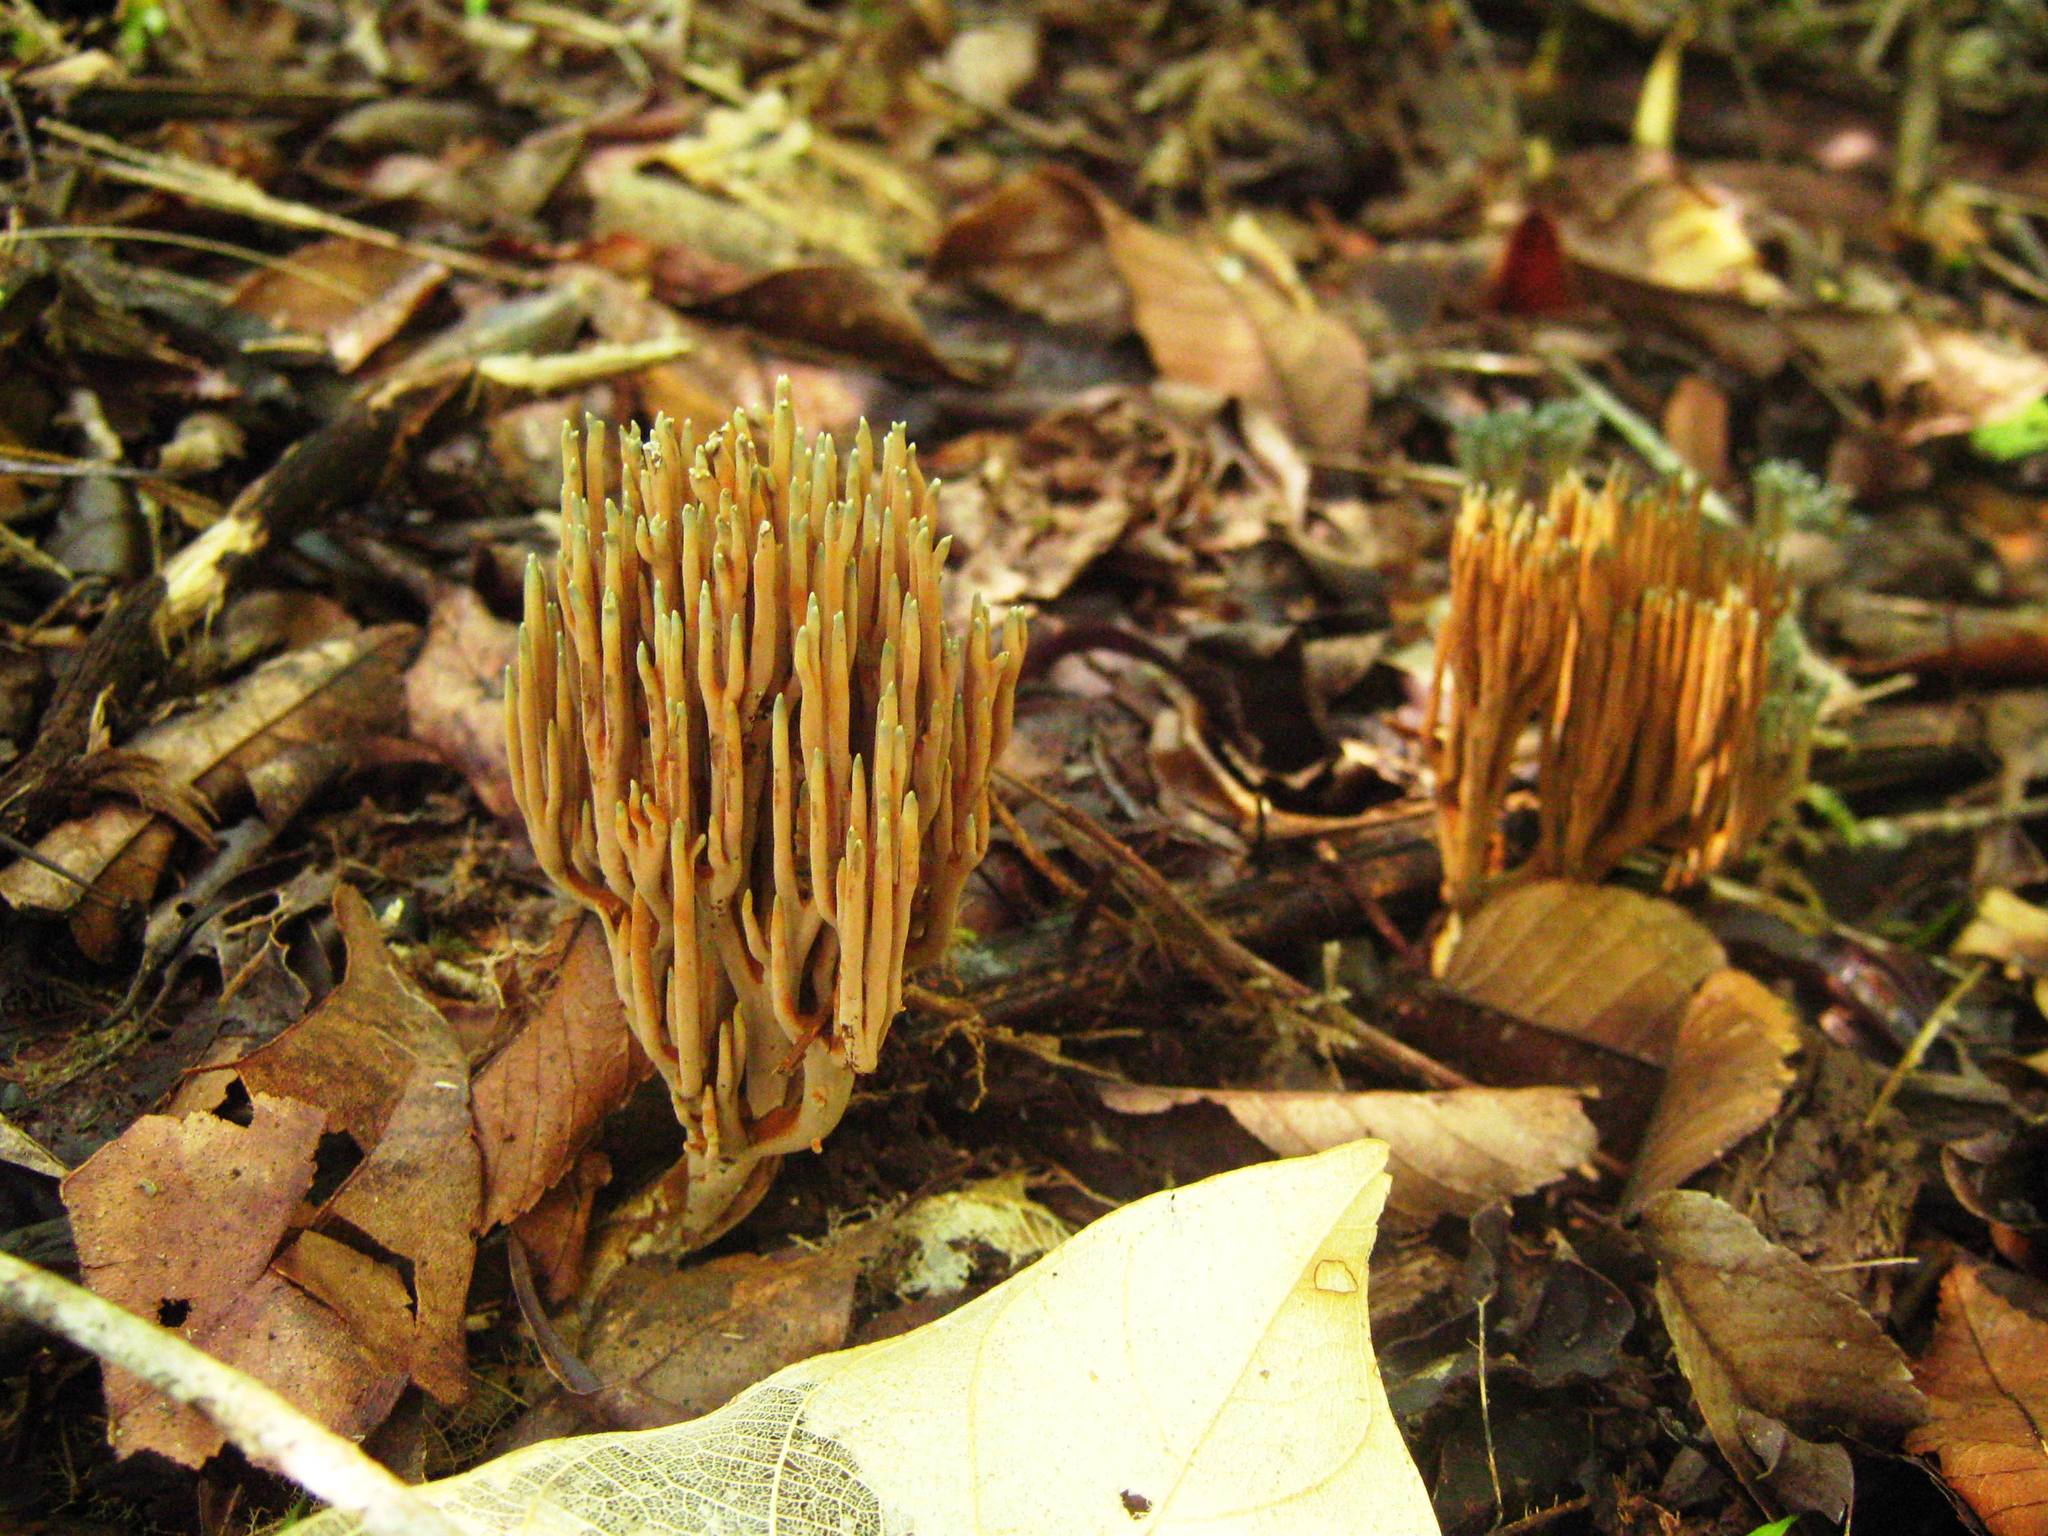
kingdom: Fungi
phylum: Basidiomycota
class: Agaricomycetes
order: Gomphales
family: Gomphaceae
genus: Ramaria
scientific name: Ramaria apiculata
